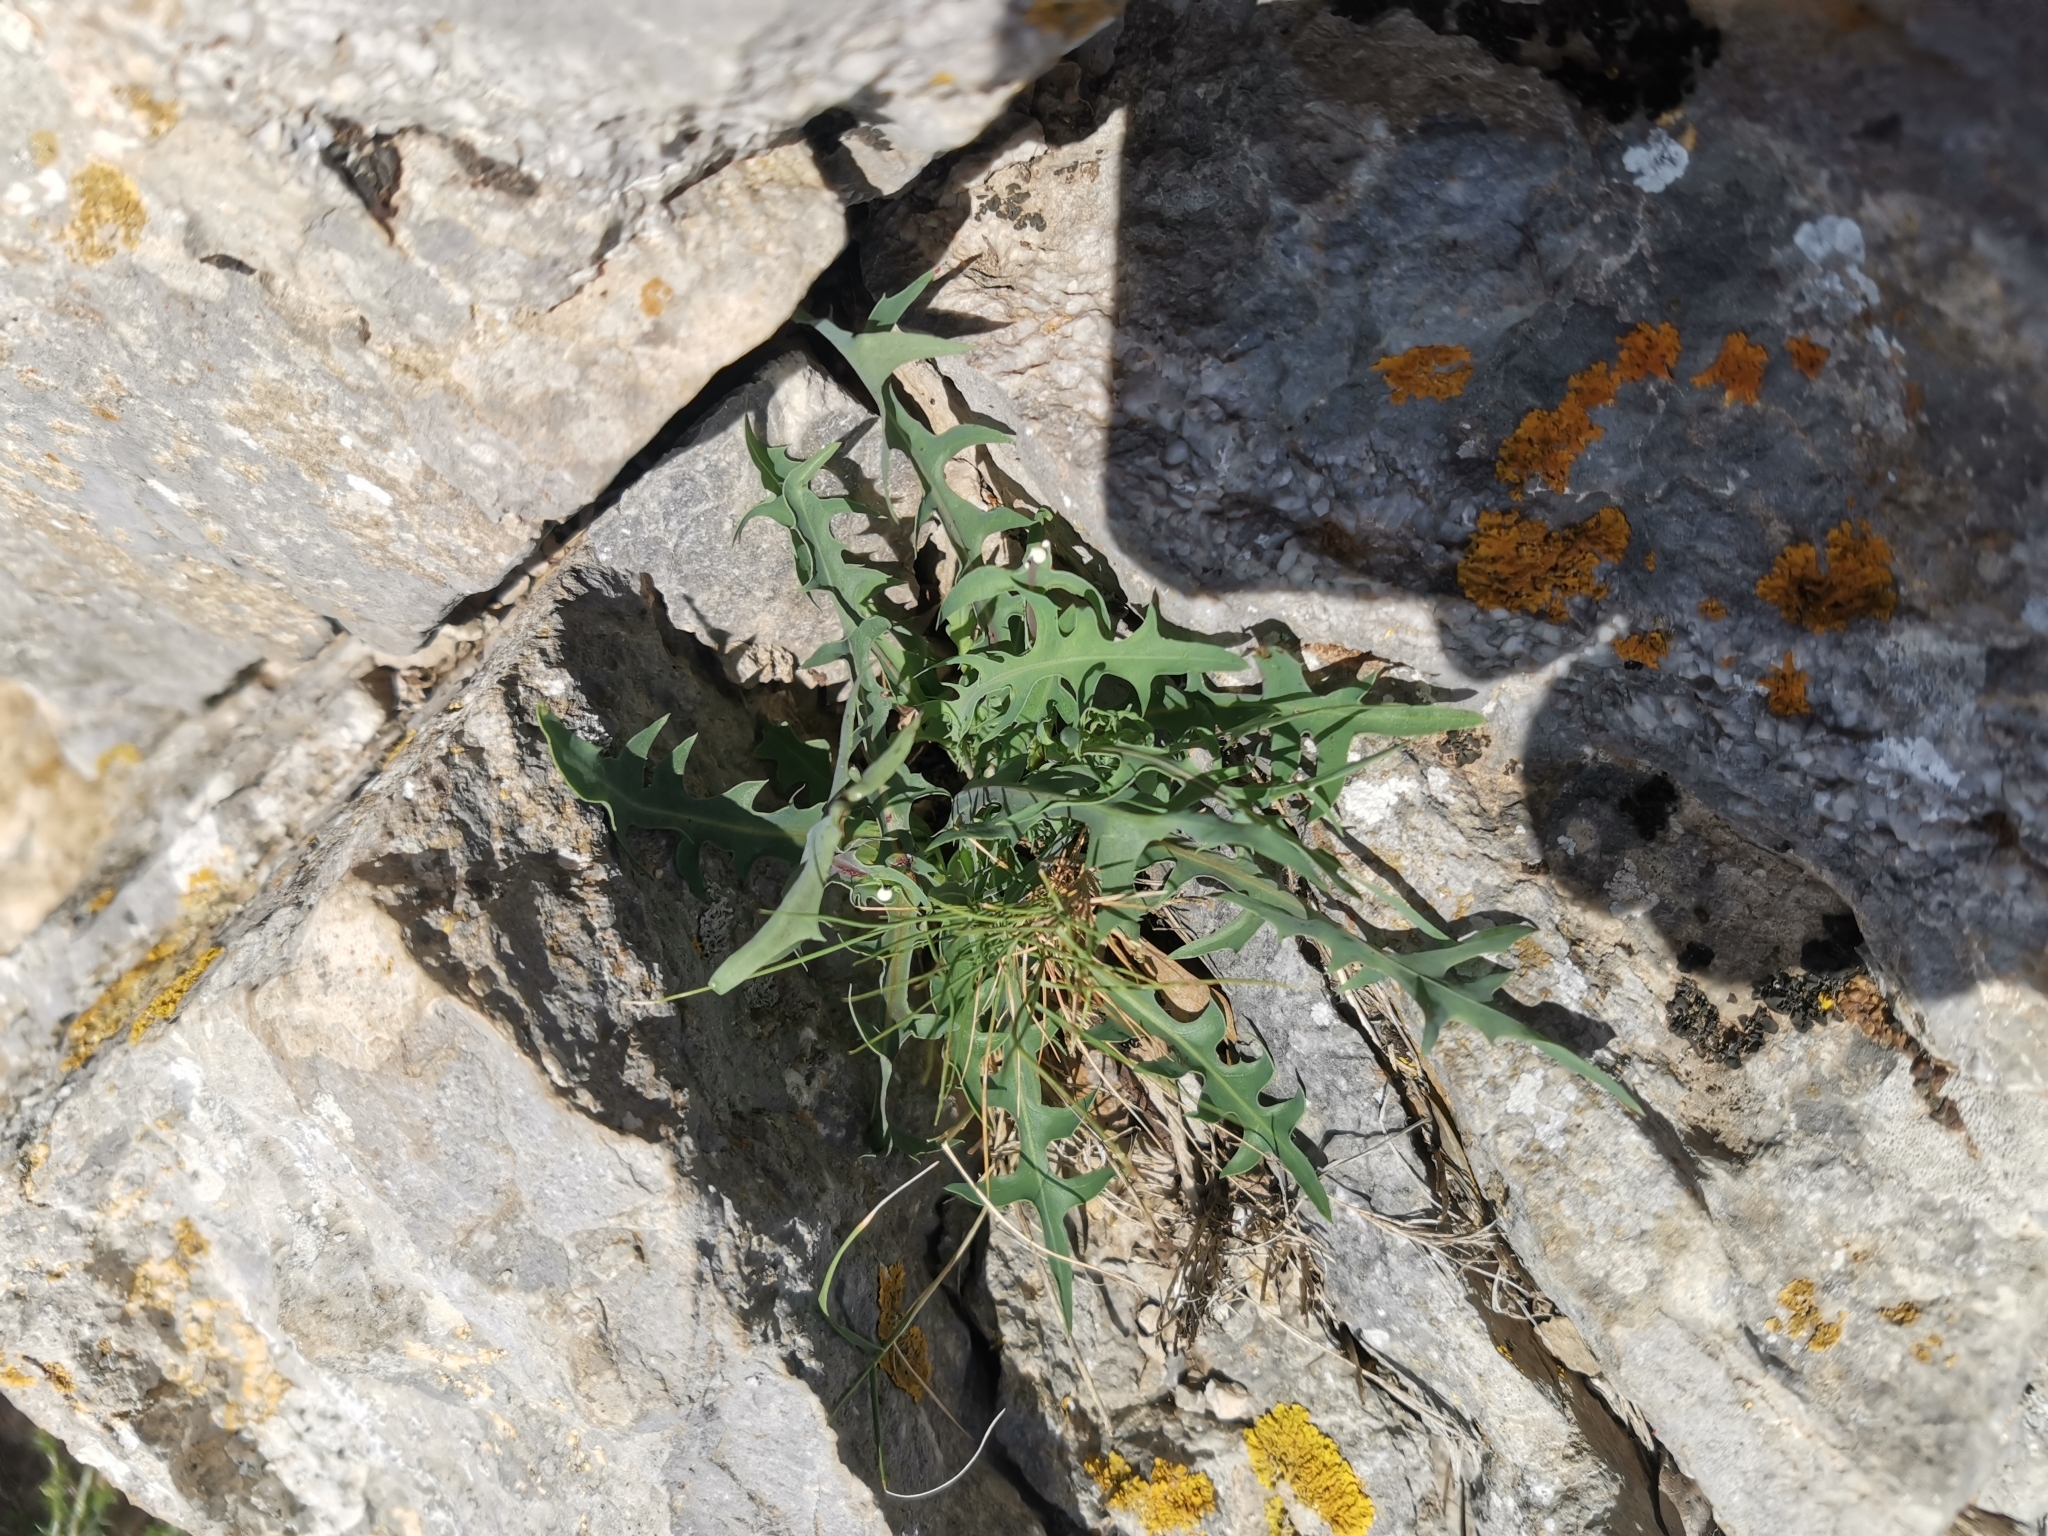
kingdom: Plantae
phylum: Tracheophyta
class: Magnoliopsida
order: Asterales
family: Asteraceae
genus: Lactuca
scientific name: Lactuca perennis
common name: Mountain lettuce
